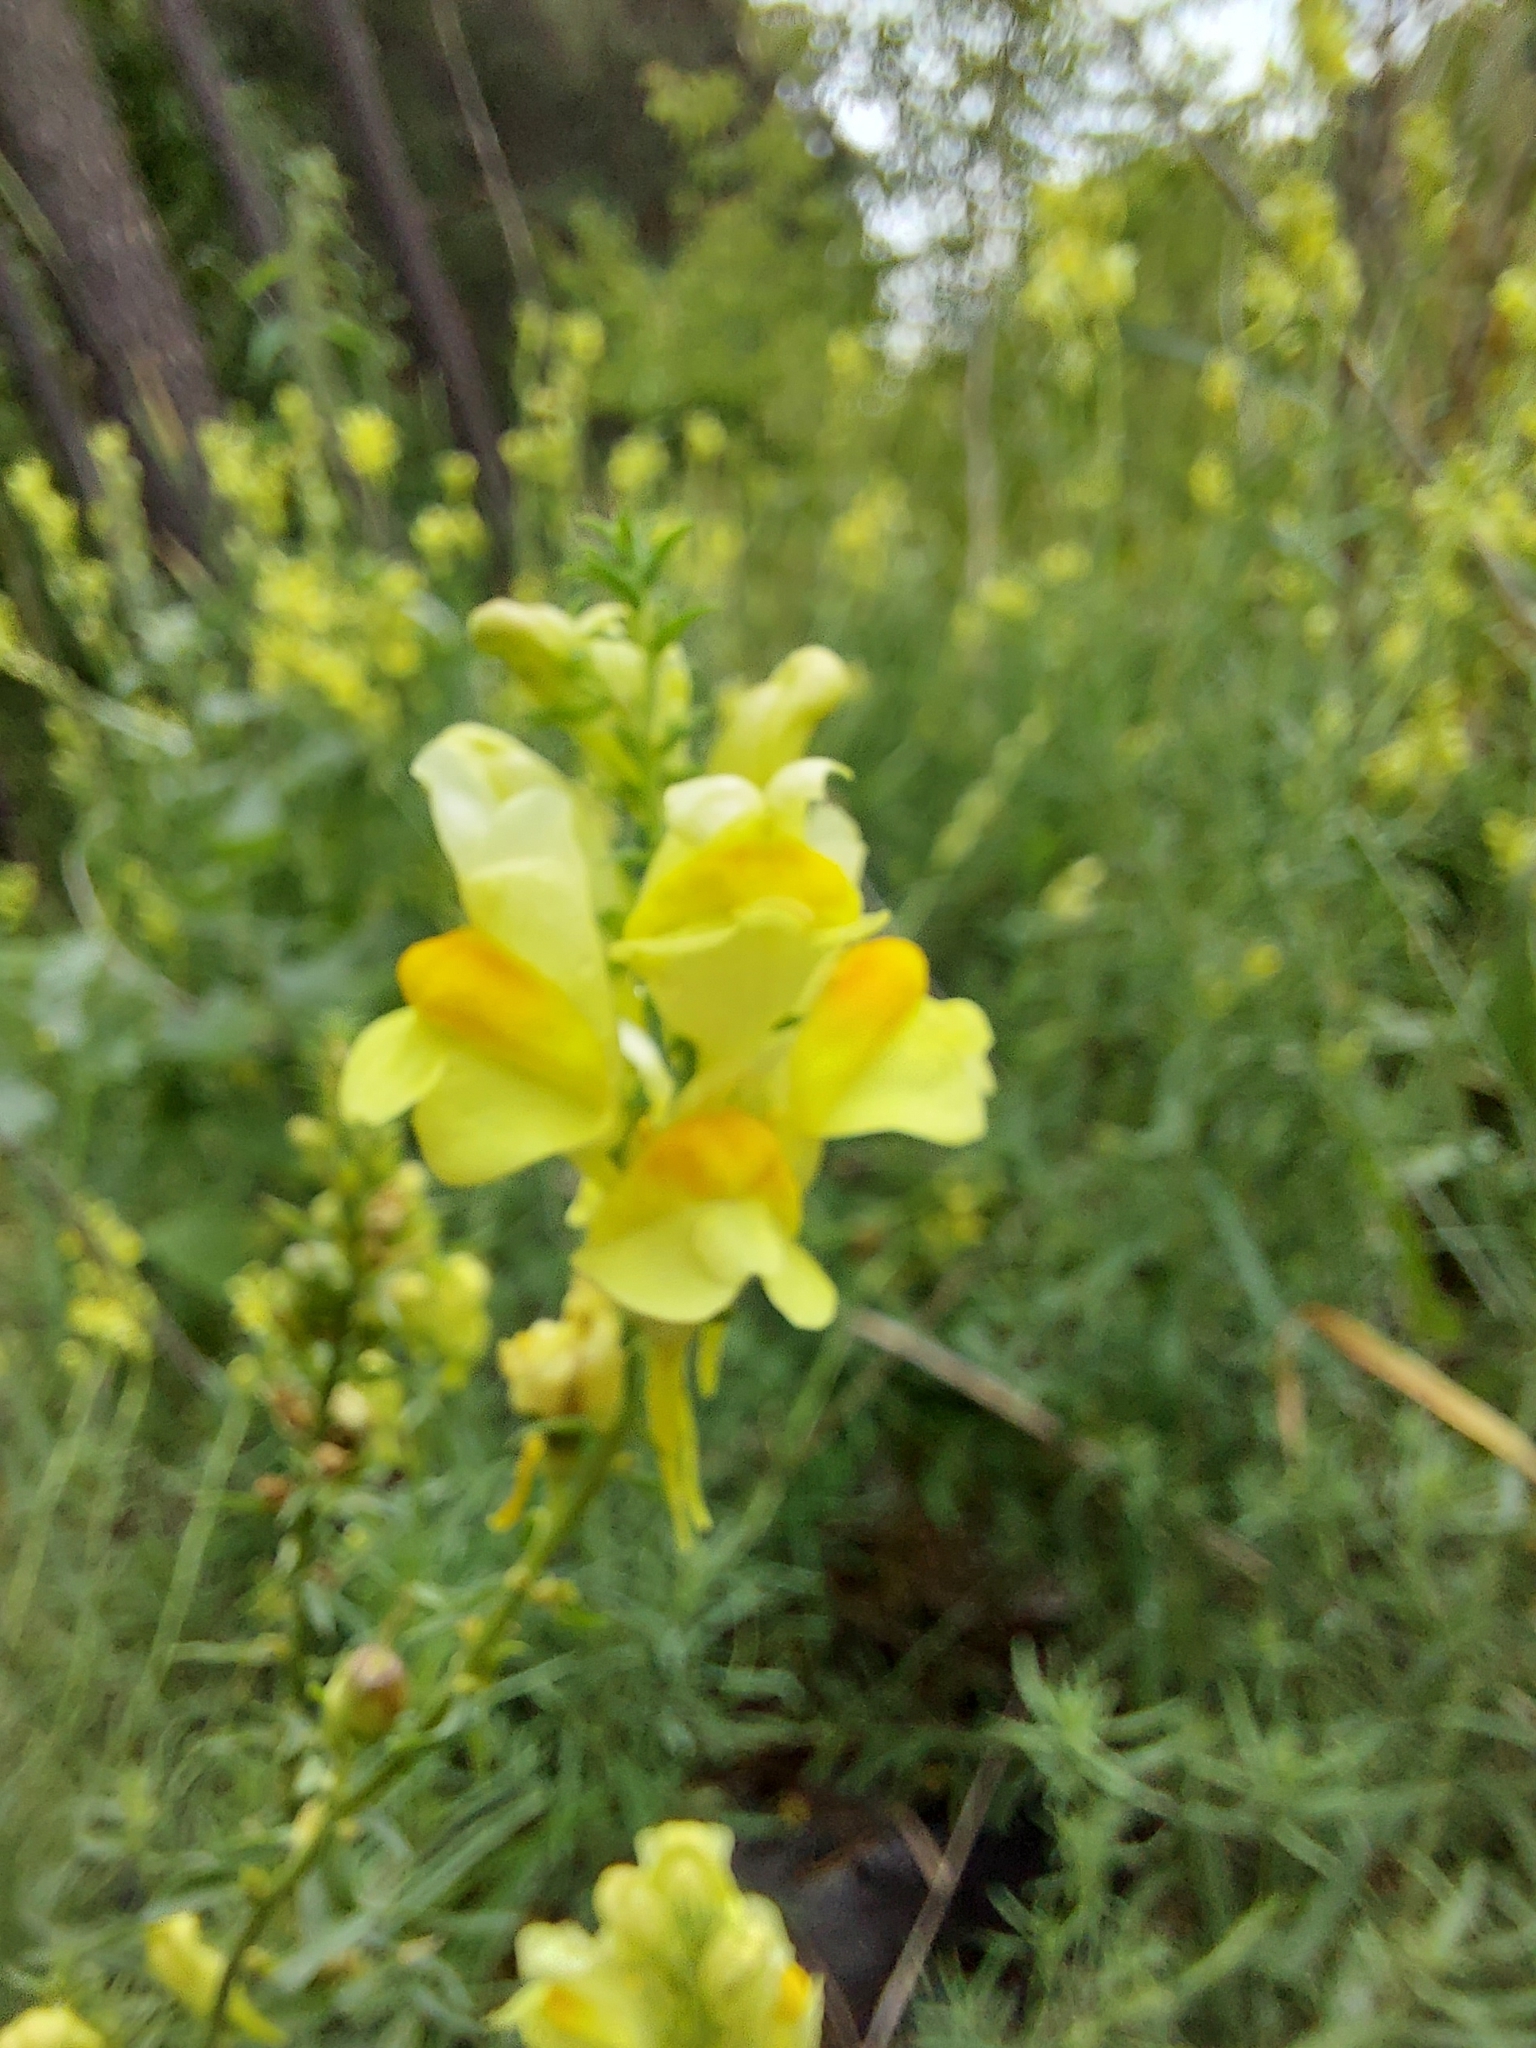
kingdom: Plantae
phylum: Tracheophyta
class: Magnoliopsida
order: Lamiales
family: Plantaginaceae
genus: Linaria
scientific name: Linaria vulgaris
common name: Butter and eggs
